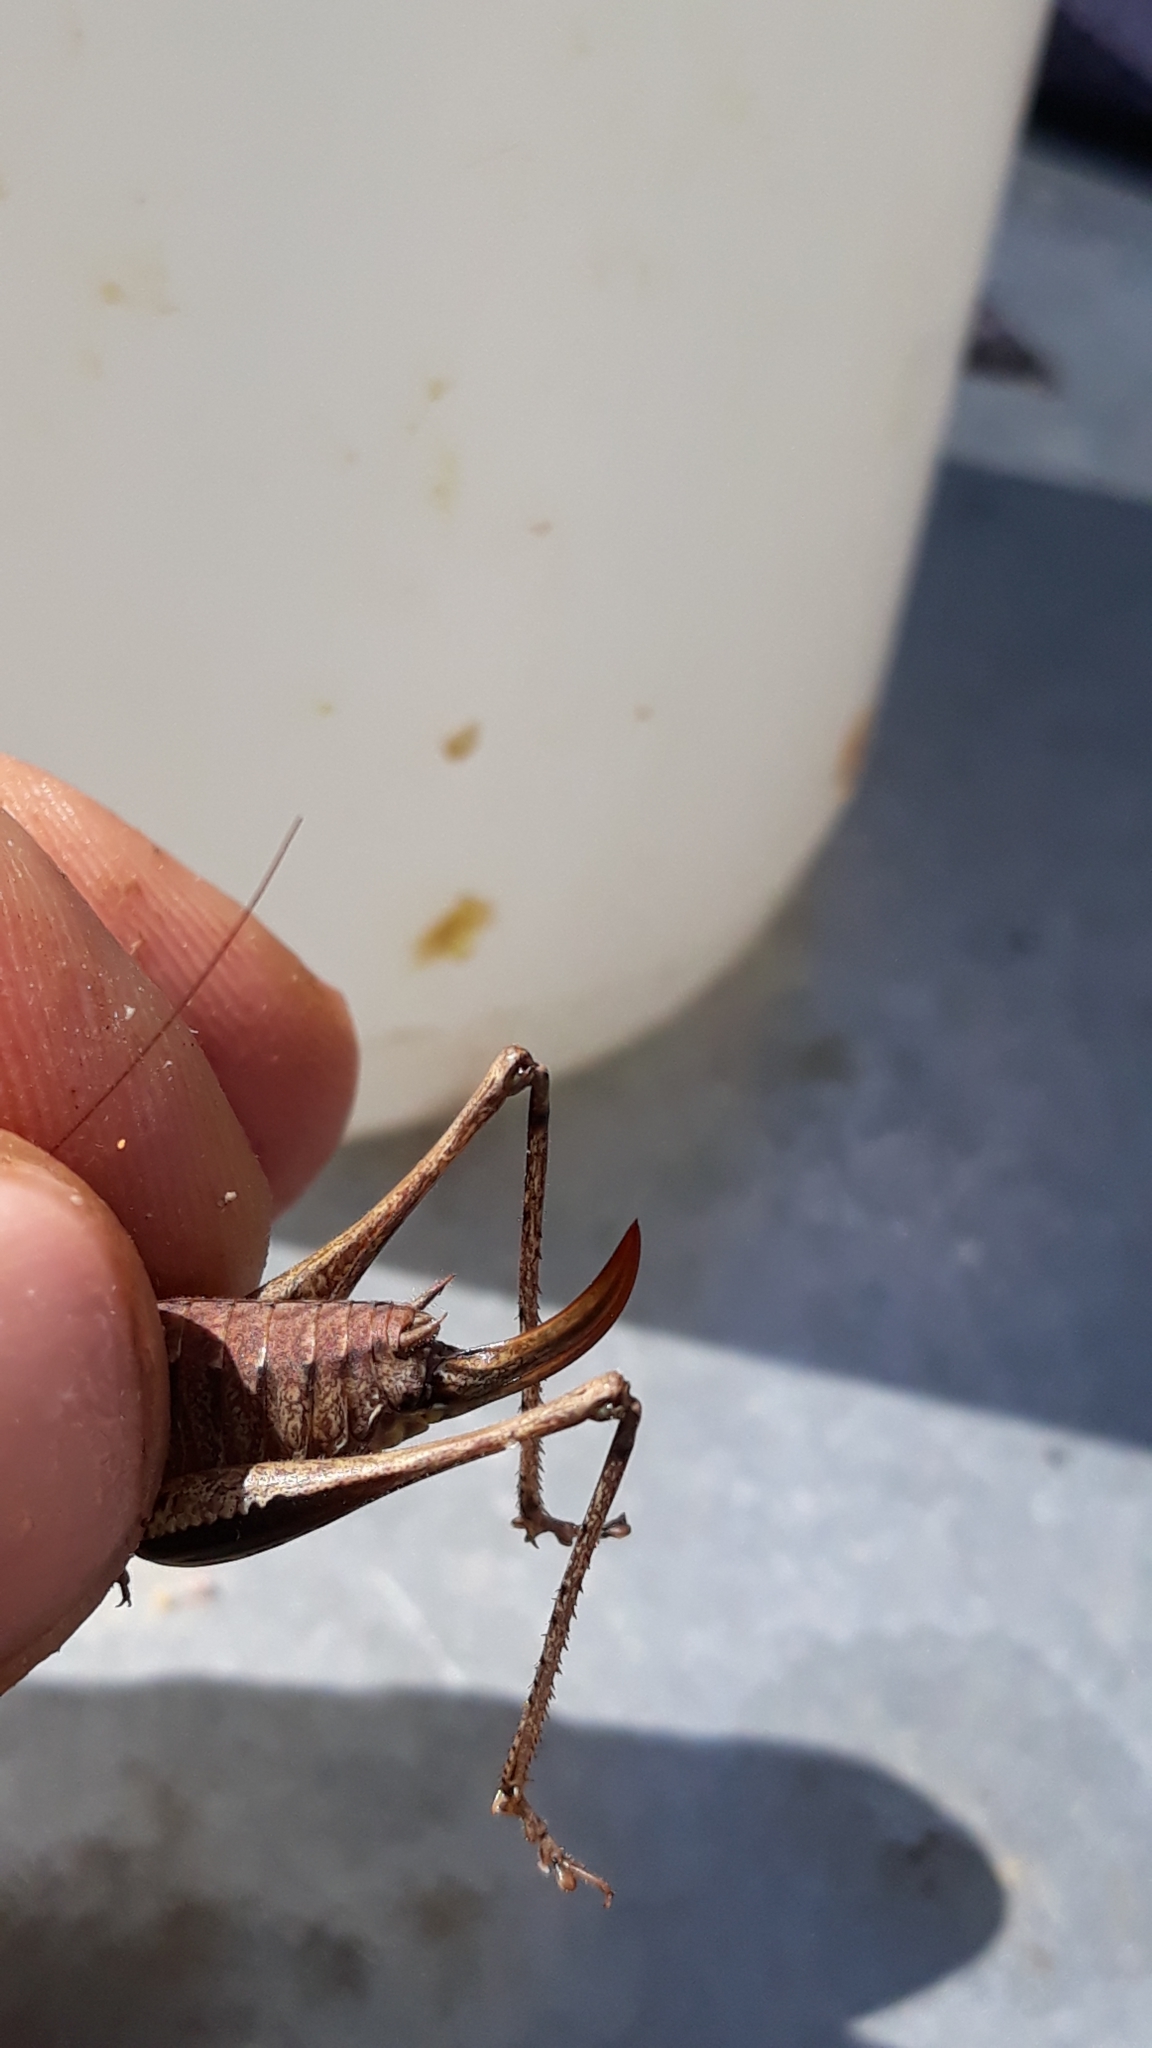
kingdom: Animalia
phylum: Arthropoda
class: Insecta
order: Orthoptera
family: Tettigoniidae
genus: Pholidoptera
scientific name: Pholidoptera griseoaptera
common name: Dark bush-cricket
